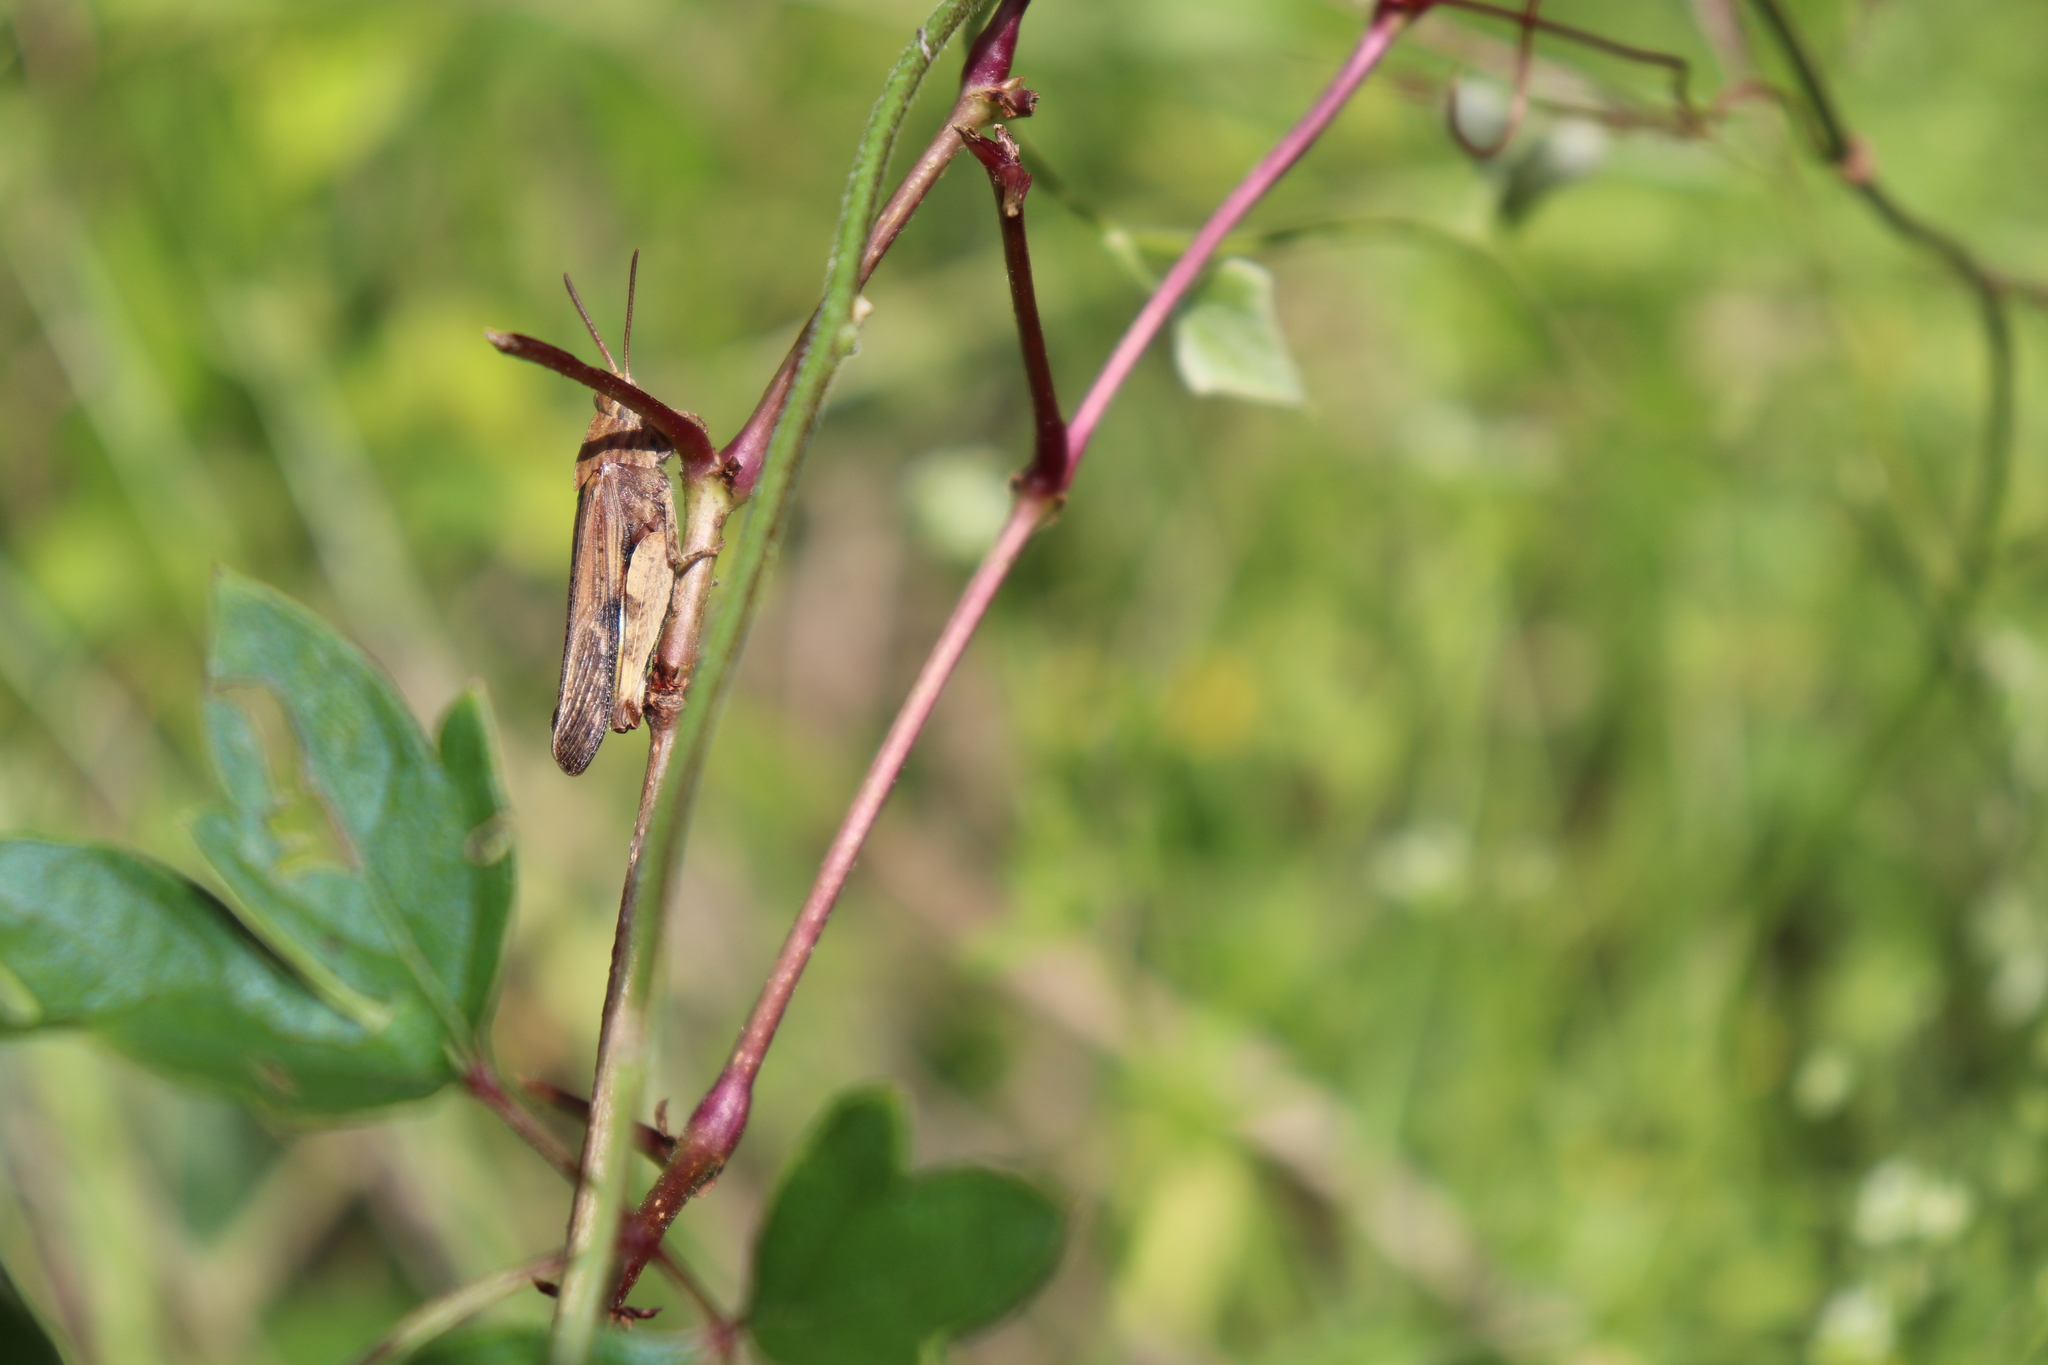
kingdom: Animalia
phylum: Arthropoda
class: Insecta
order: Orthoptera
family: Acrididae
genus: Chortophaga
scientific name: Chortophaga viridifasciata
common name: Green-striped grasshopper
